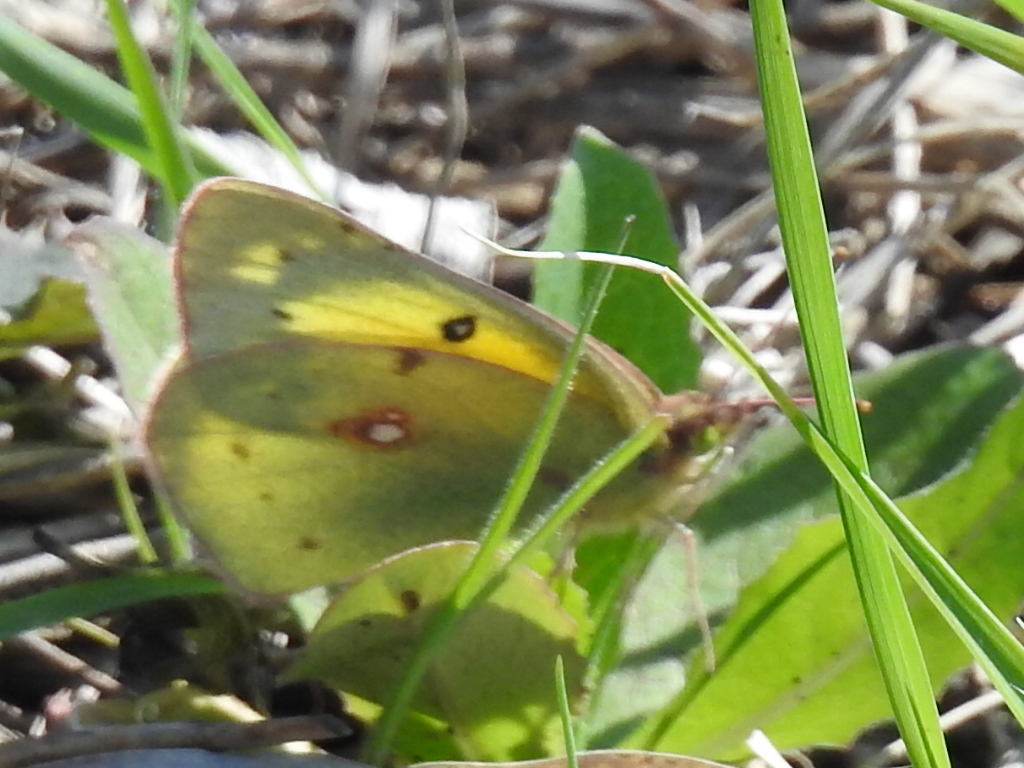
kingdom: Animalia
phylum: Arthropoda
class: Insecta
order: Lepidoptera
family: Pieridae
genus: Colias
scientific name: Colias eurytheme
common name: Alfalfa butterfly
